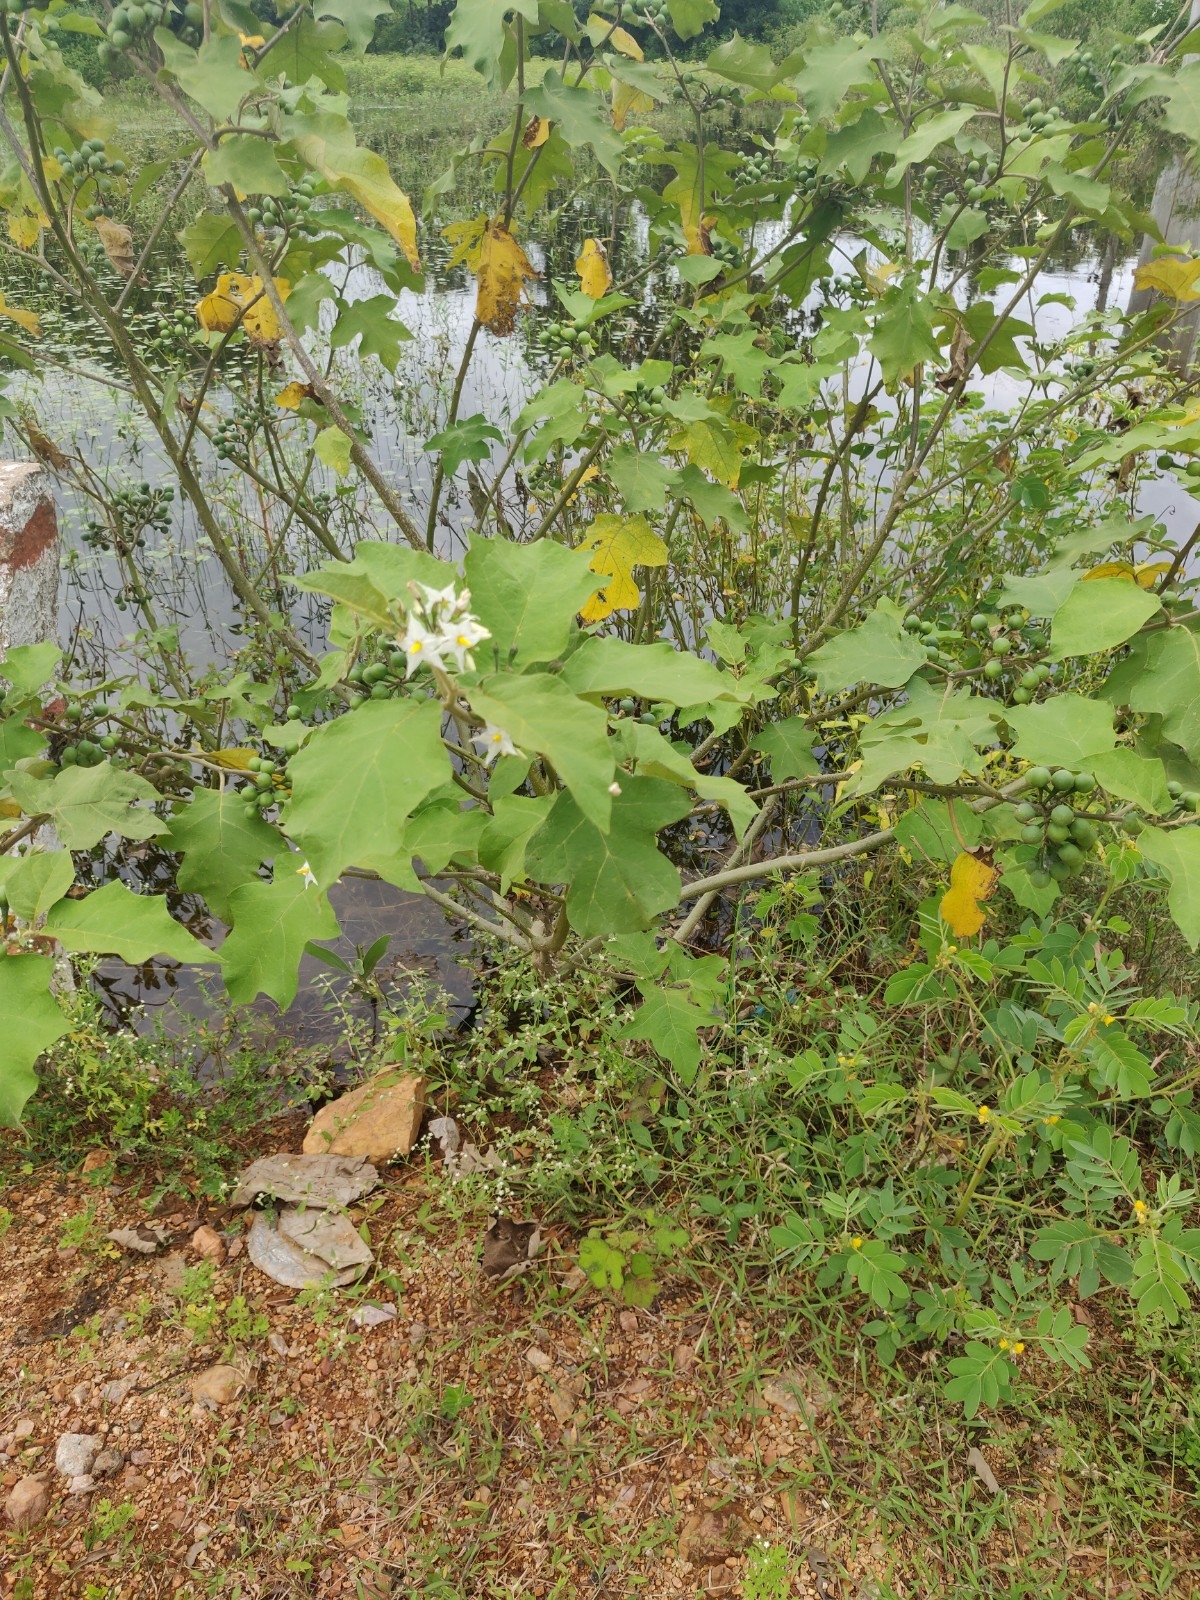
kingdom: Plantae
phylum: Tracheophyta
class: Magnoliopsida
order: Solanales
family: Solanaceae
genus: Solanum
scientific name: Solanum torvum
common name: Turkey berry
